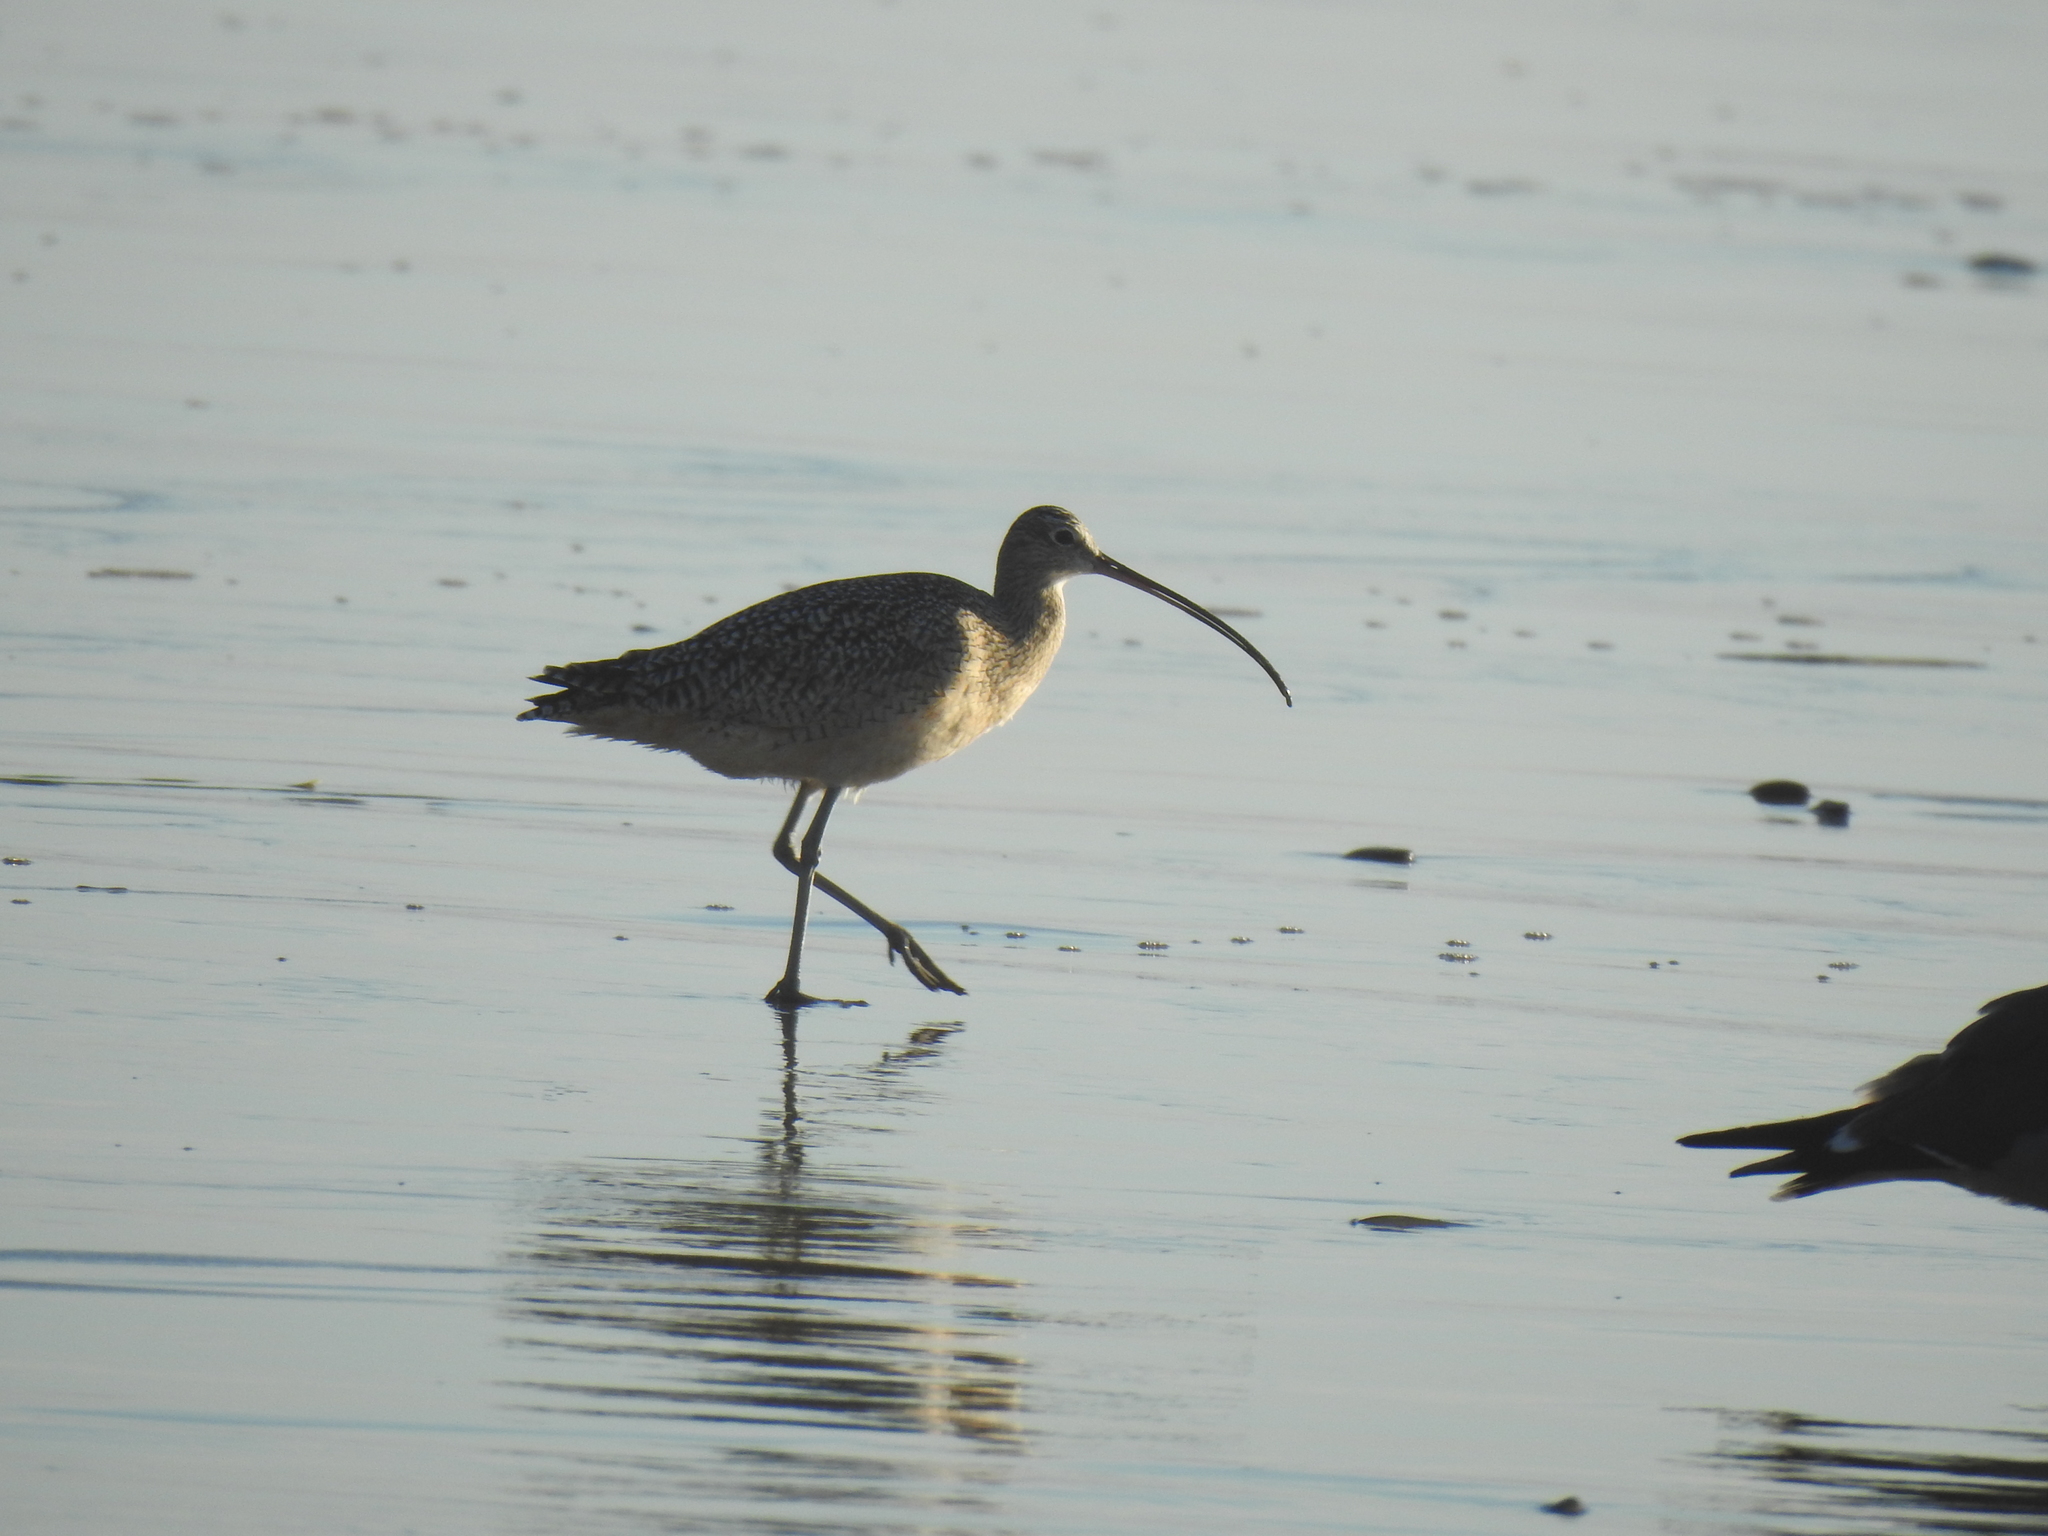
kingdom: Animalia
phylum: Chordata
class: Aves
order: Charadriiformes
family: Scolopacidae
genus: Numenius
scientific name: Numenius americanus
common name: Long-billed curlew
